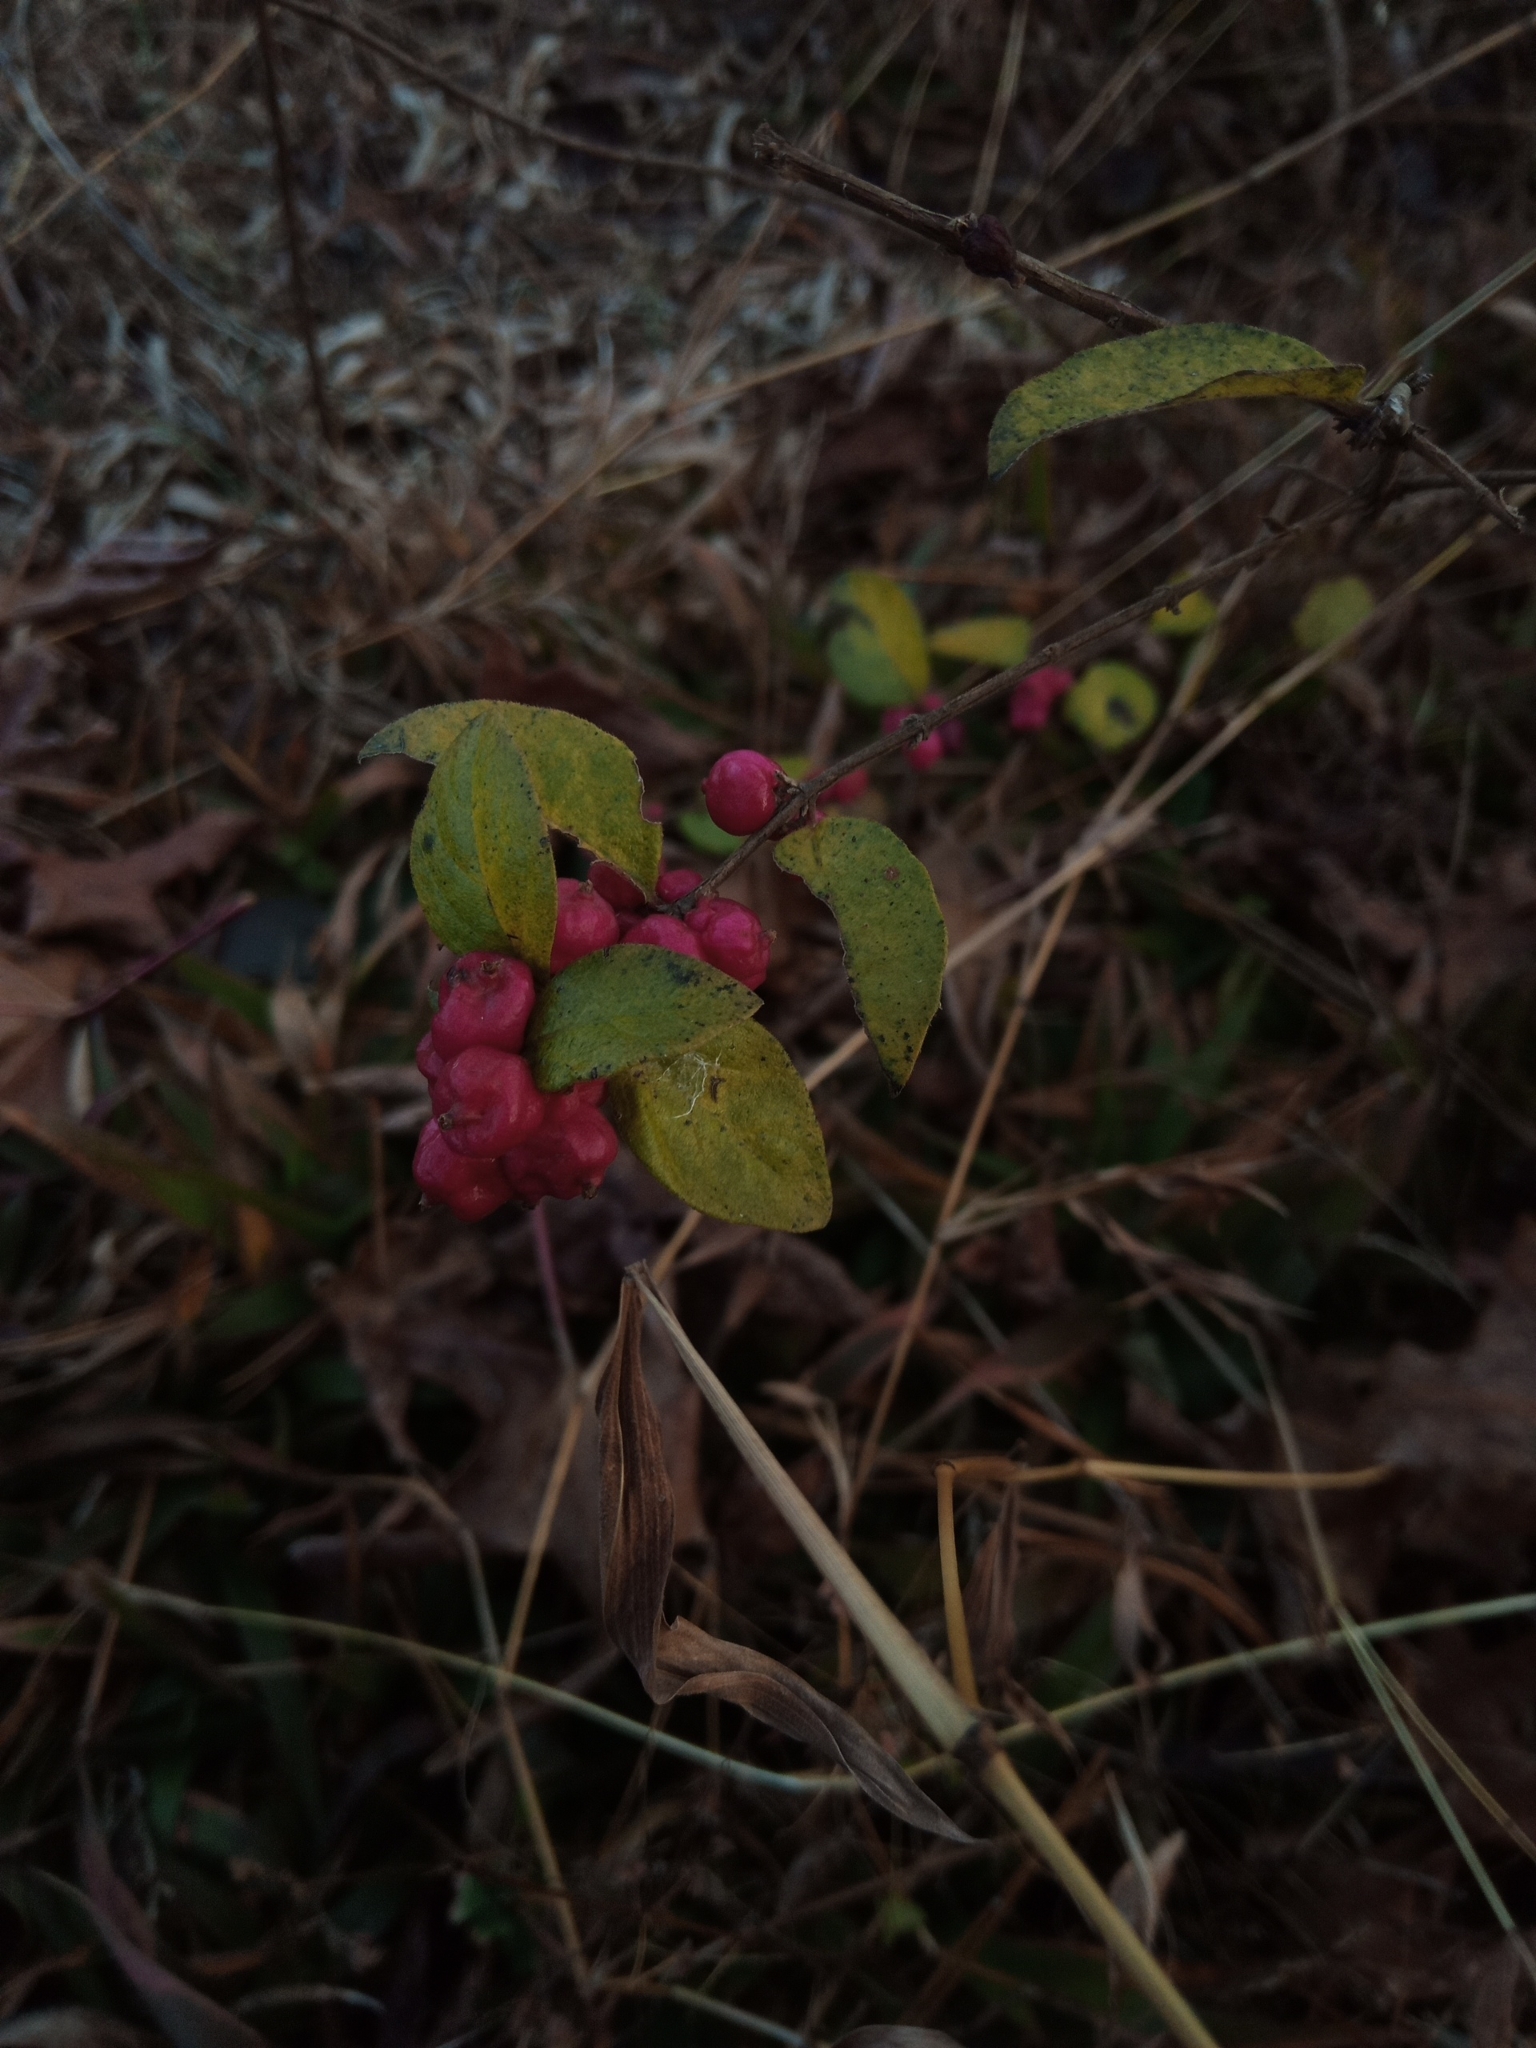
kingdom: Plantae
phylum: Tracheophyta
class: Magnoliopsida
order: Dipsacales
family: Caprifoliaceae
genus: Symphoricarpos
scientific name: Symphoricarpos orbiculatus
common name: Coralberry
